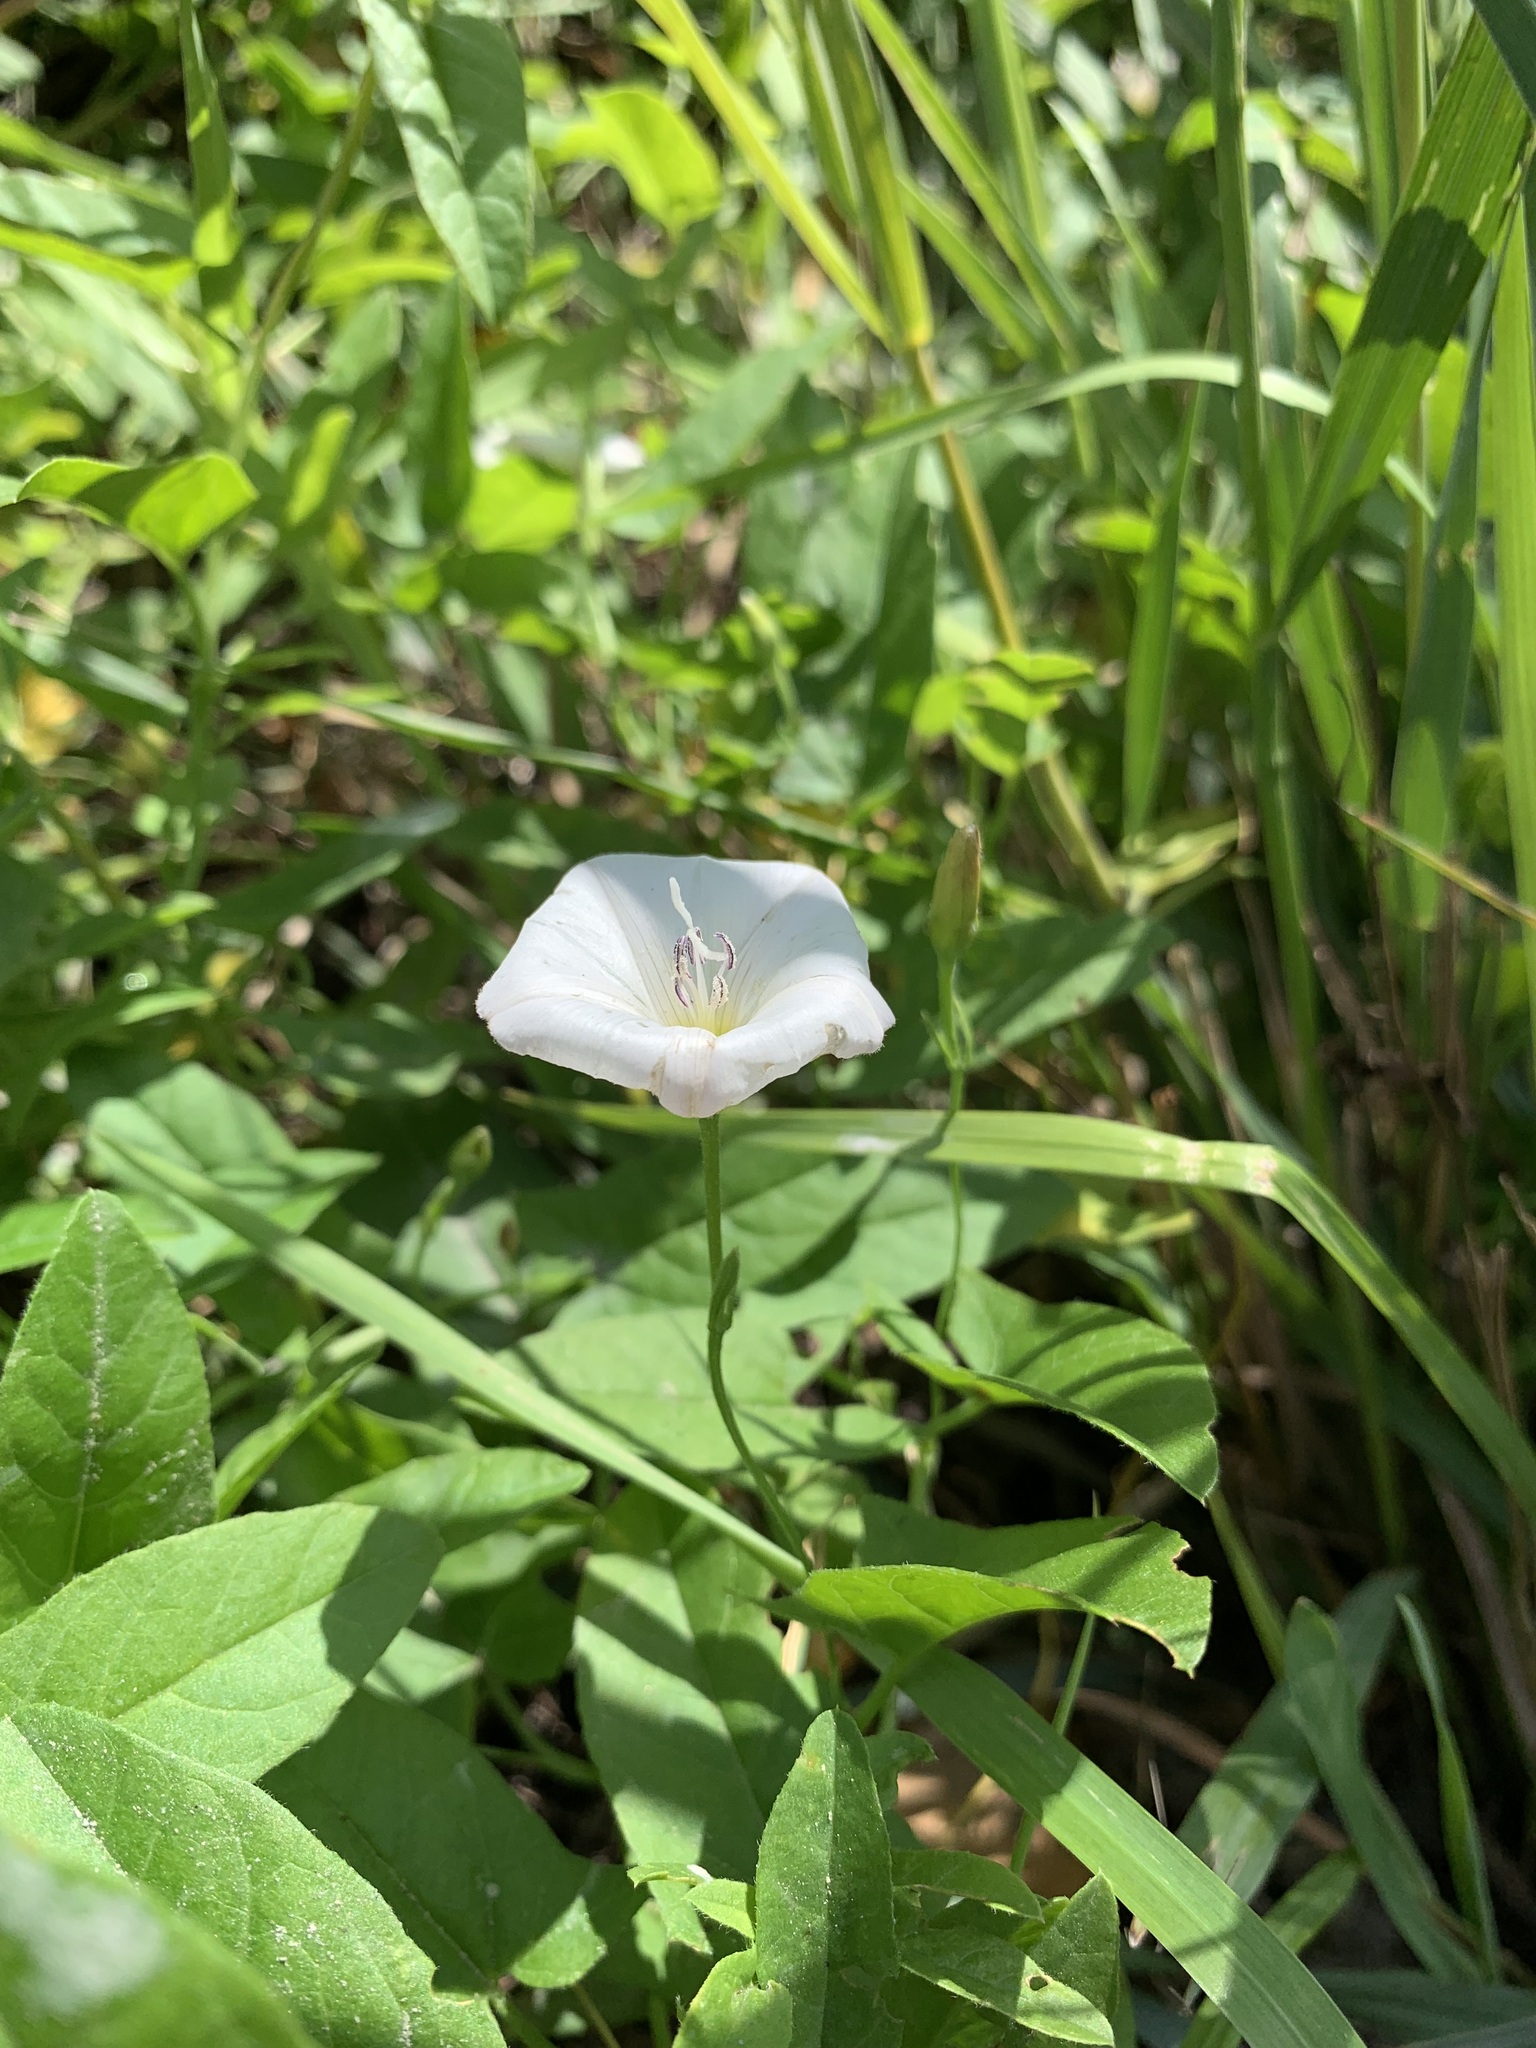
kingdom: Plantae
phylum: Tracheophyta
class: Magnoliopsida
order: Solanales
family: Convolvulaceae
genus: Convolvulus
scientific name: Convolvulus arvensis
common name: Field bindweed
